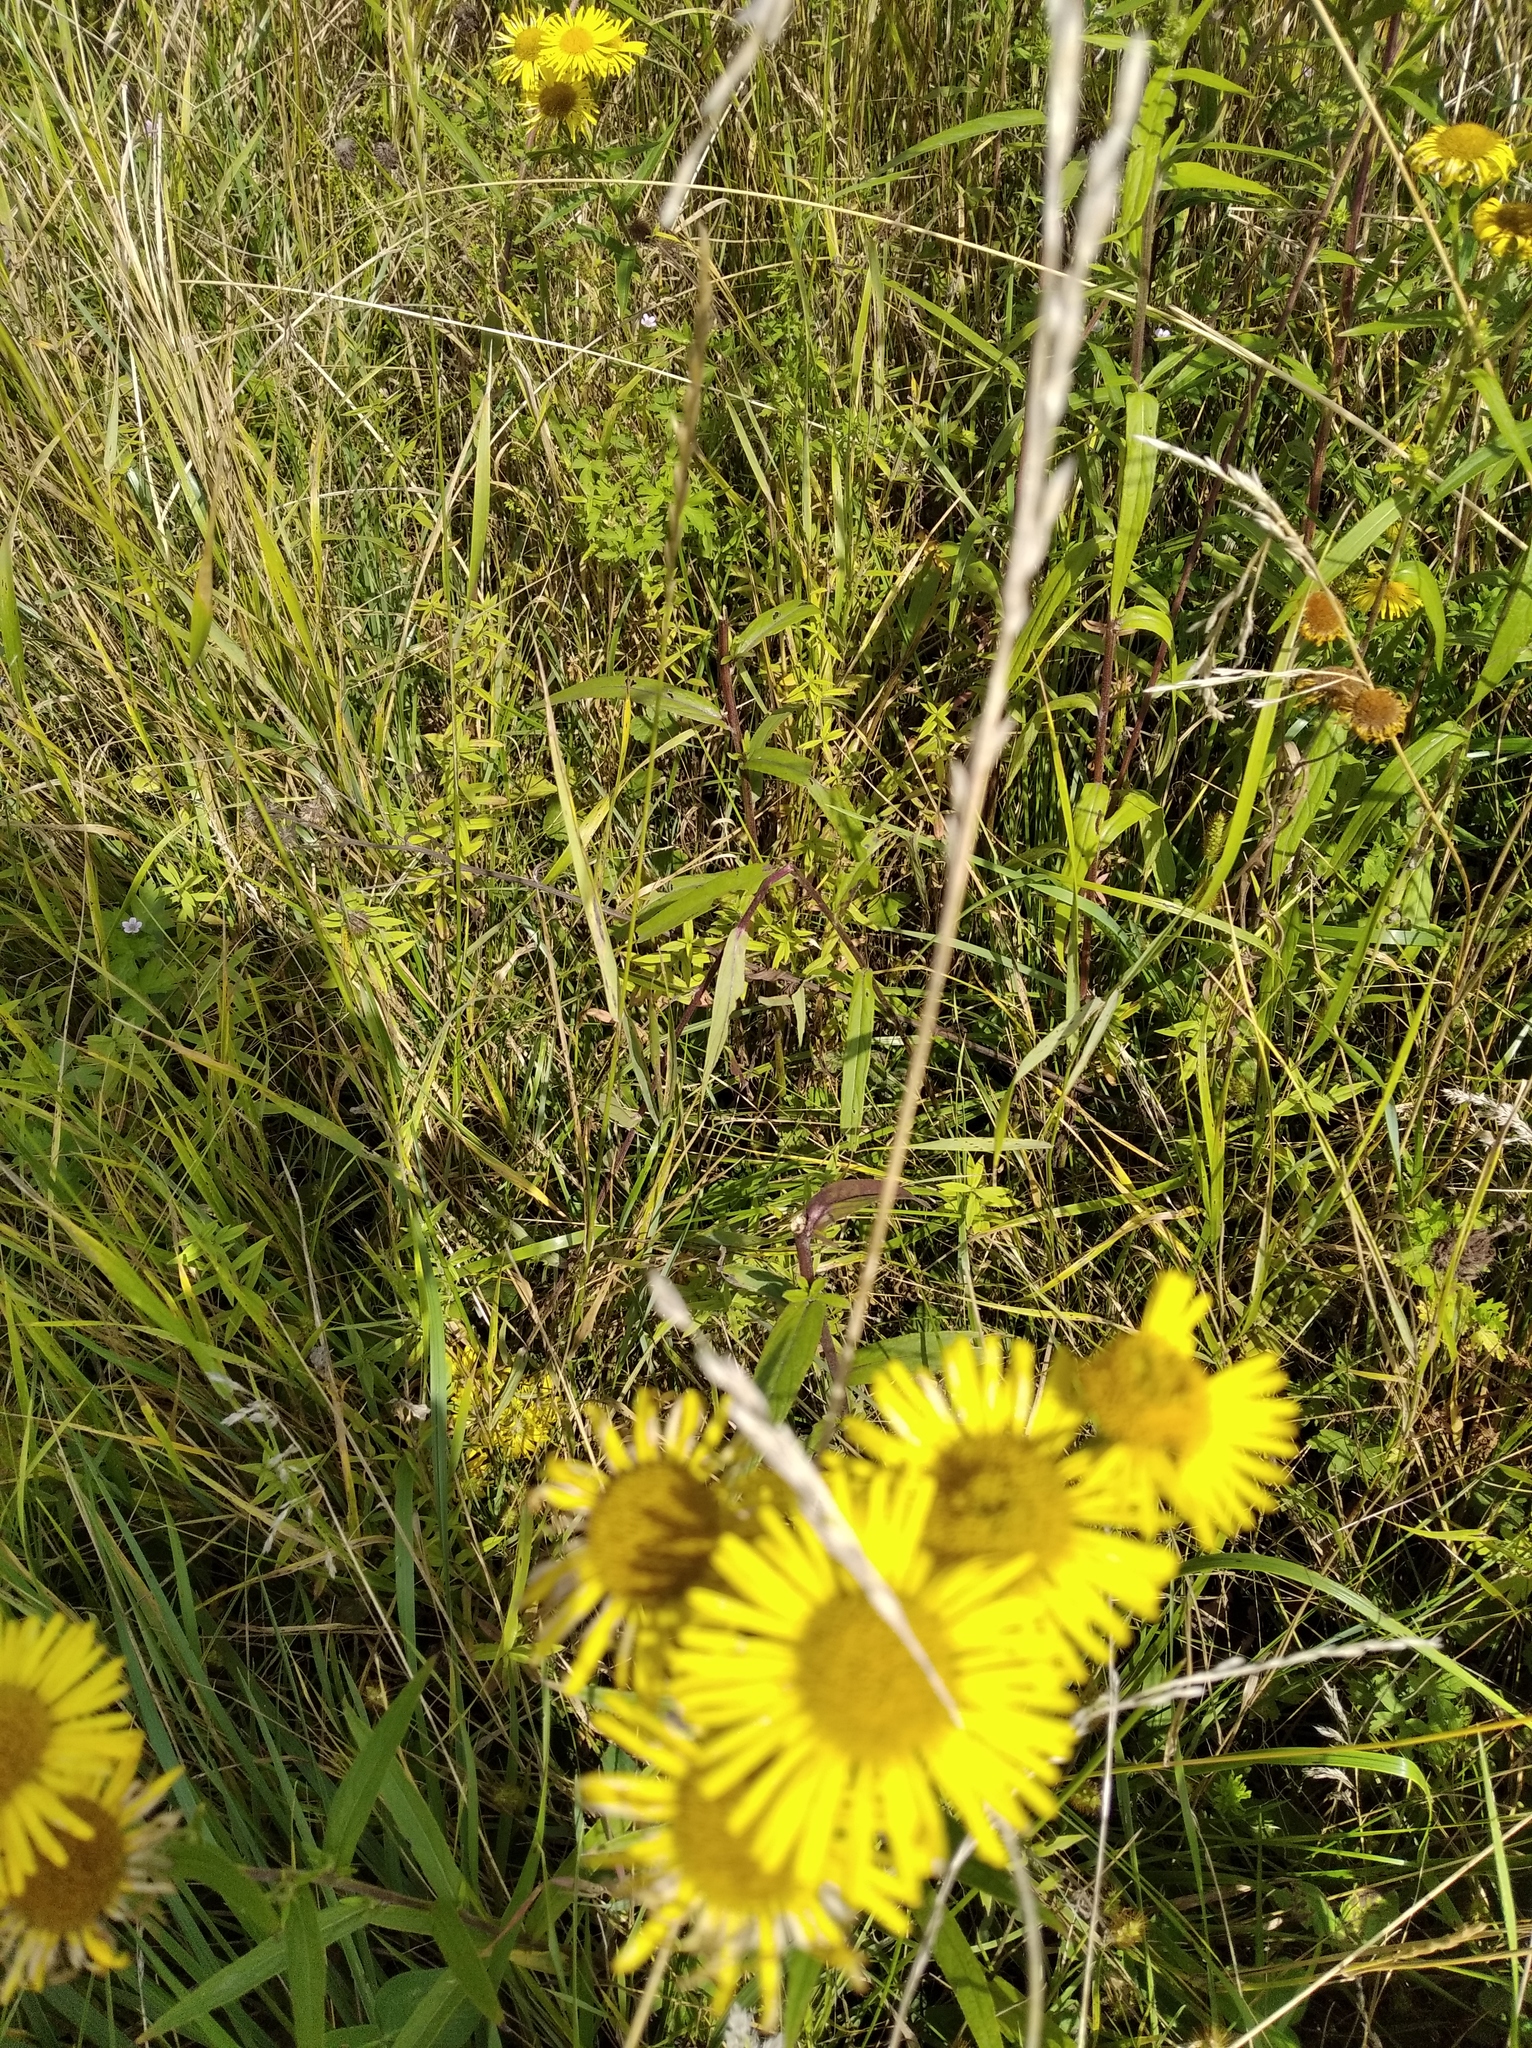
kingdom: Plantae
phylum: Tracheophyta
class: Magnoliopsida
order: Asterales
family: Asteraceae
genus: Inula
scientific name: Inula japonica
